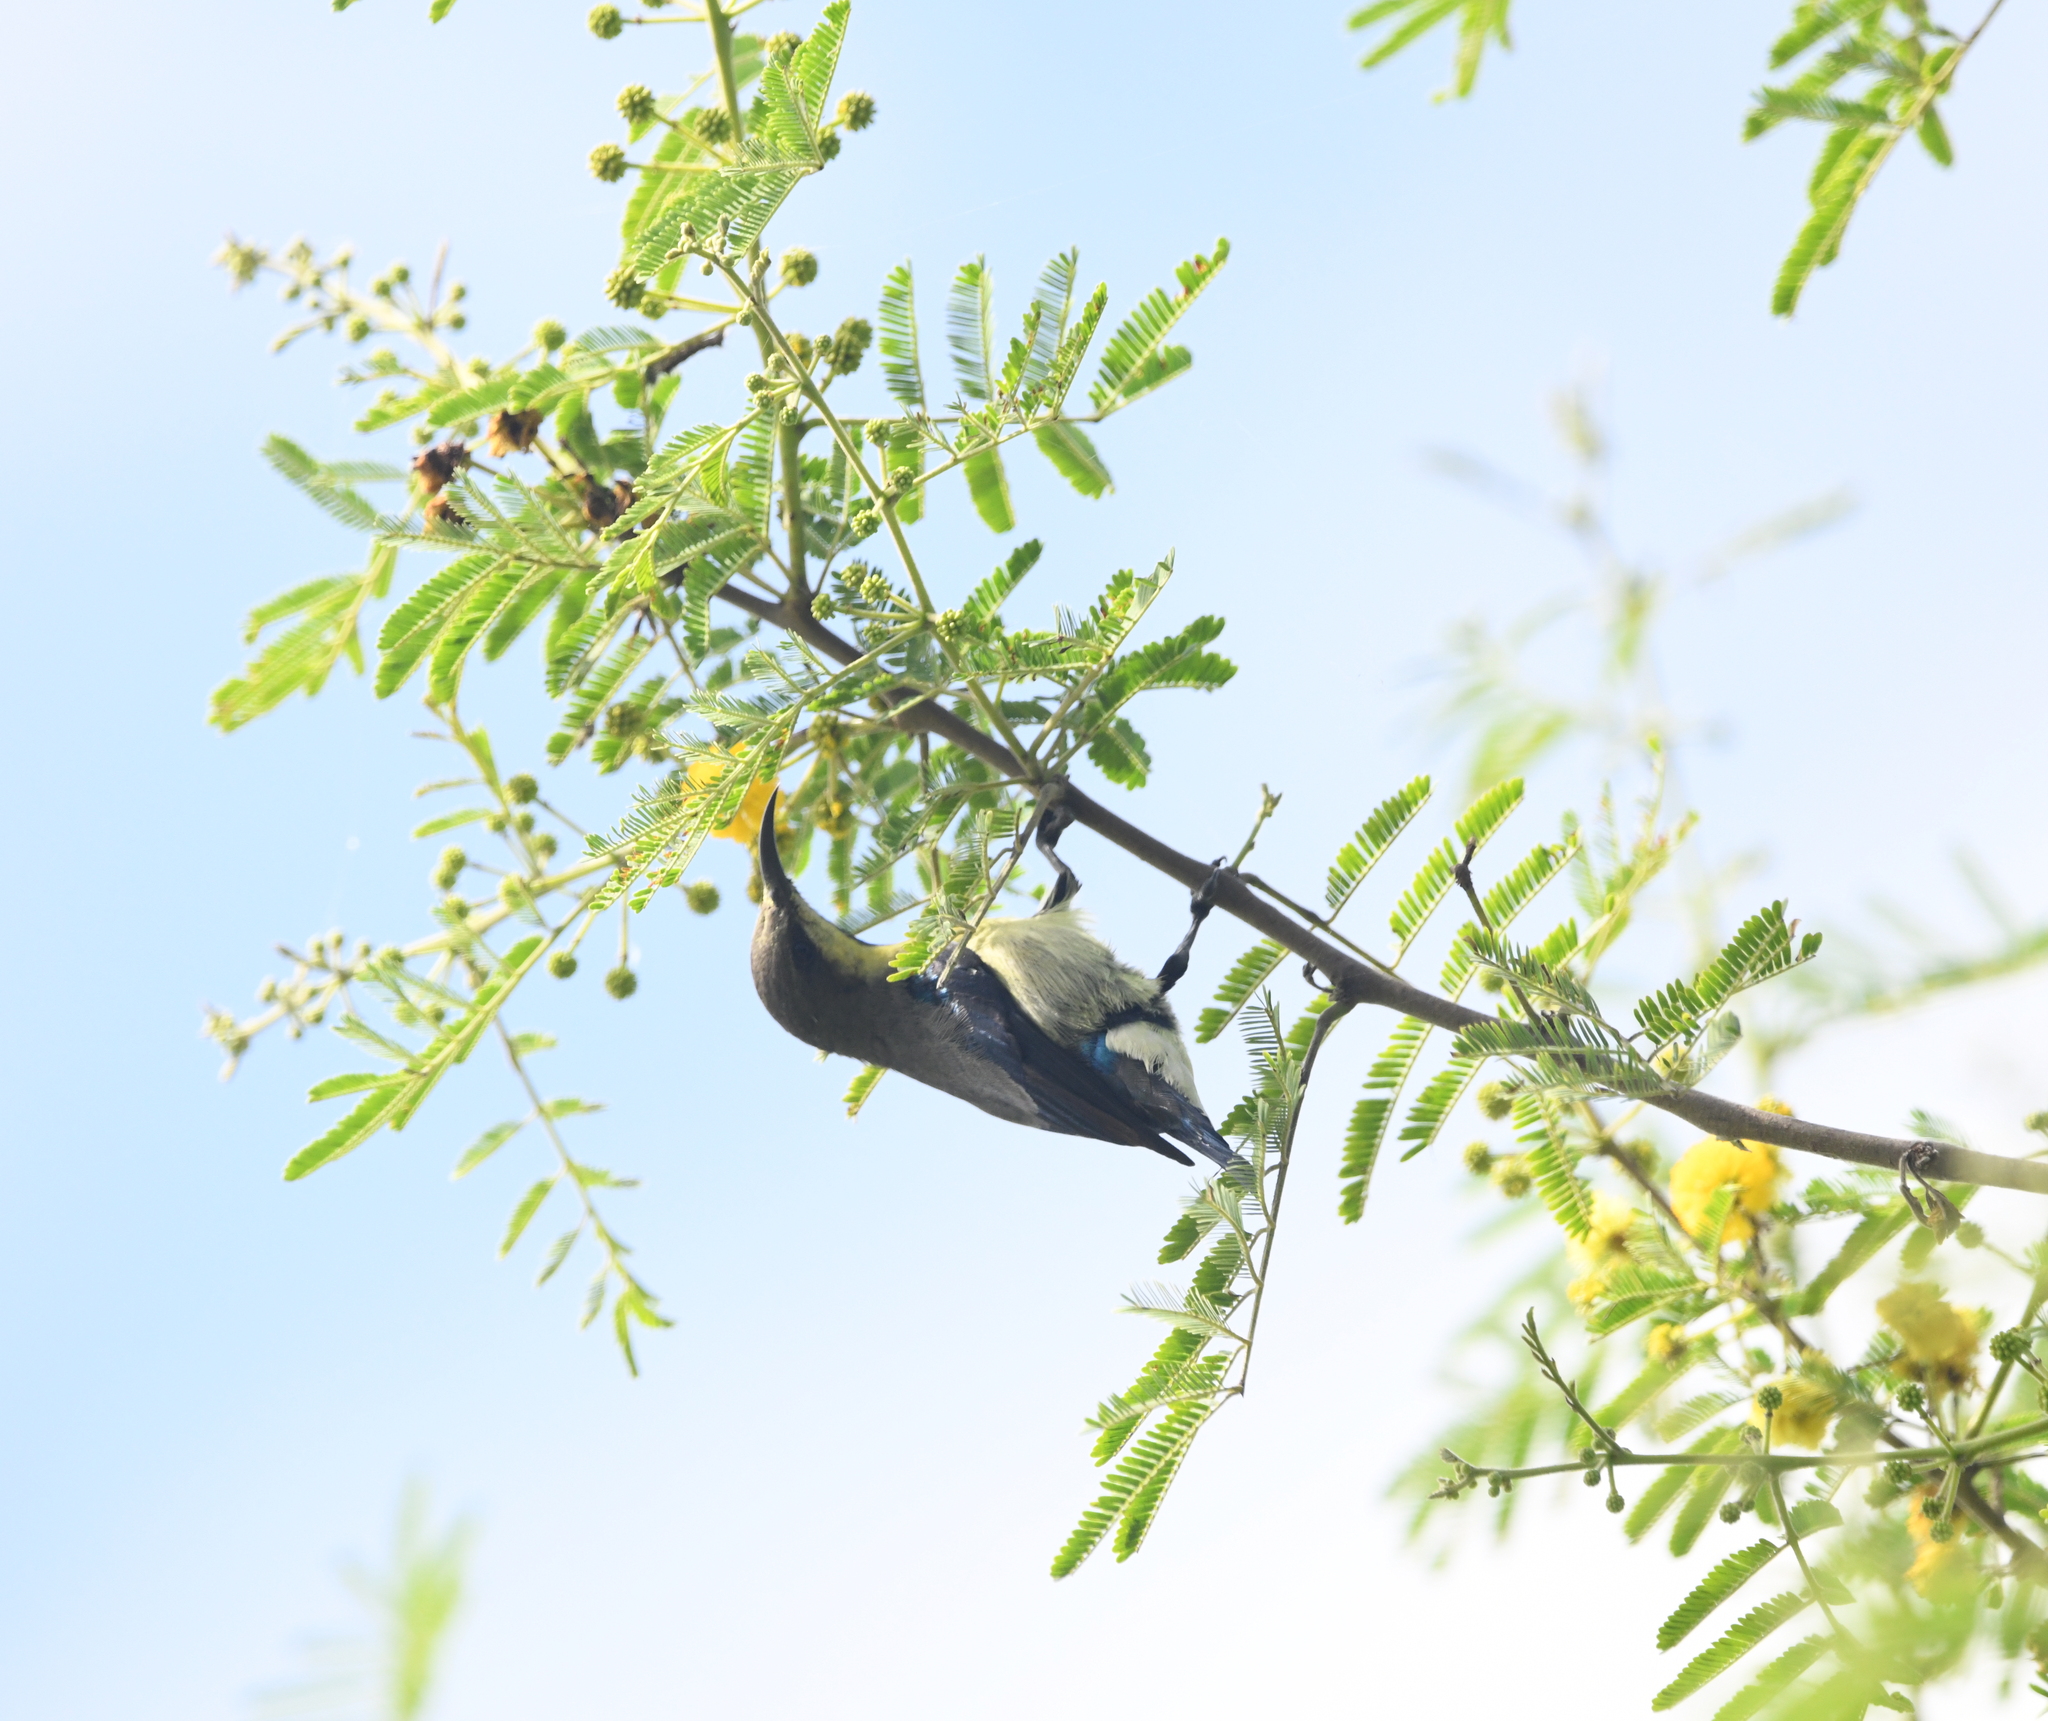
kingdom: Animalia
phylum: Chordata
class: Aves
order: Passeriformes
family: Nectariniidae
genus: Cinnyris
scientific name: Cinnyris asiaticus
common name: Purple sunbird
